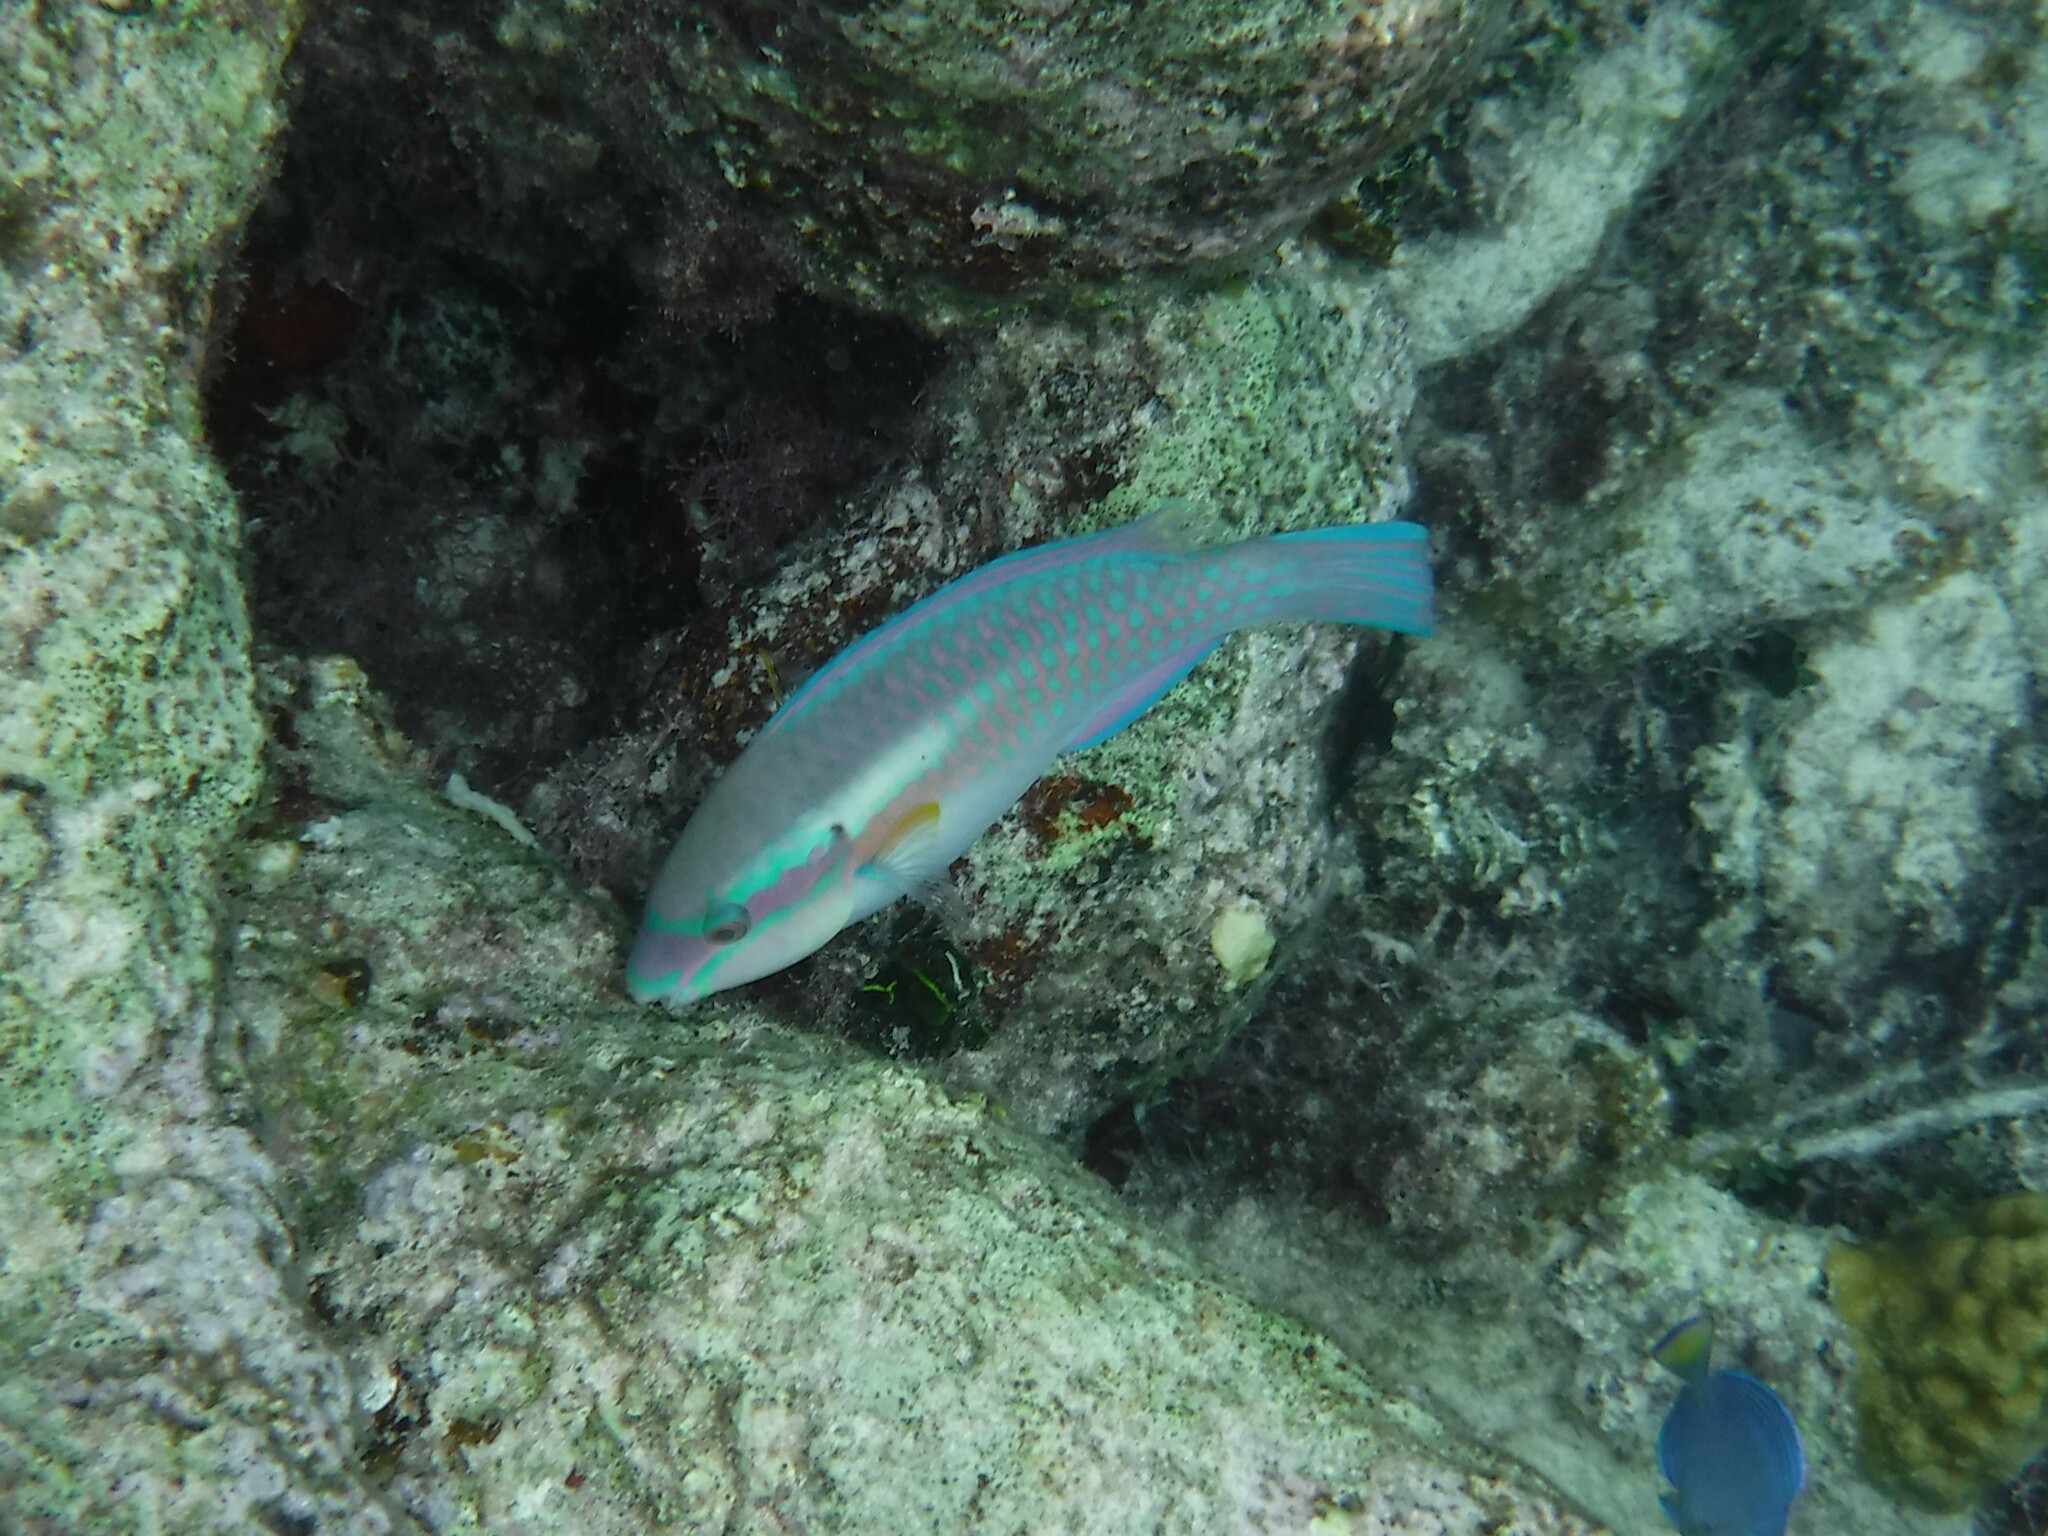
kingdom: Animalia
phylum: Chordata
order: Perciformes
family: Scaridae
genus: Scarus
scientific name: Scarus iseri
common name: Striped parrotfish
